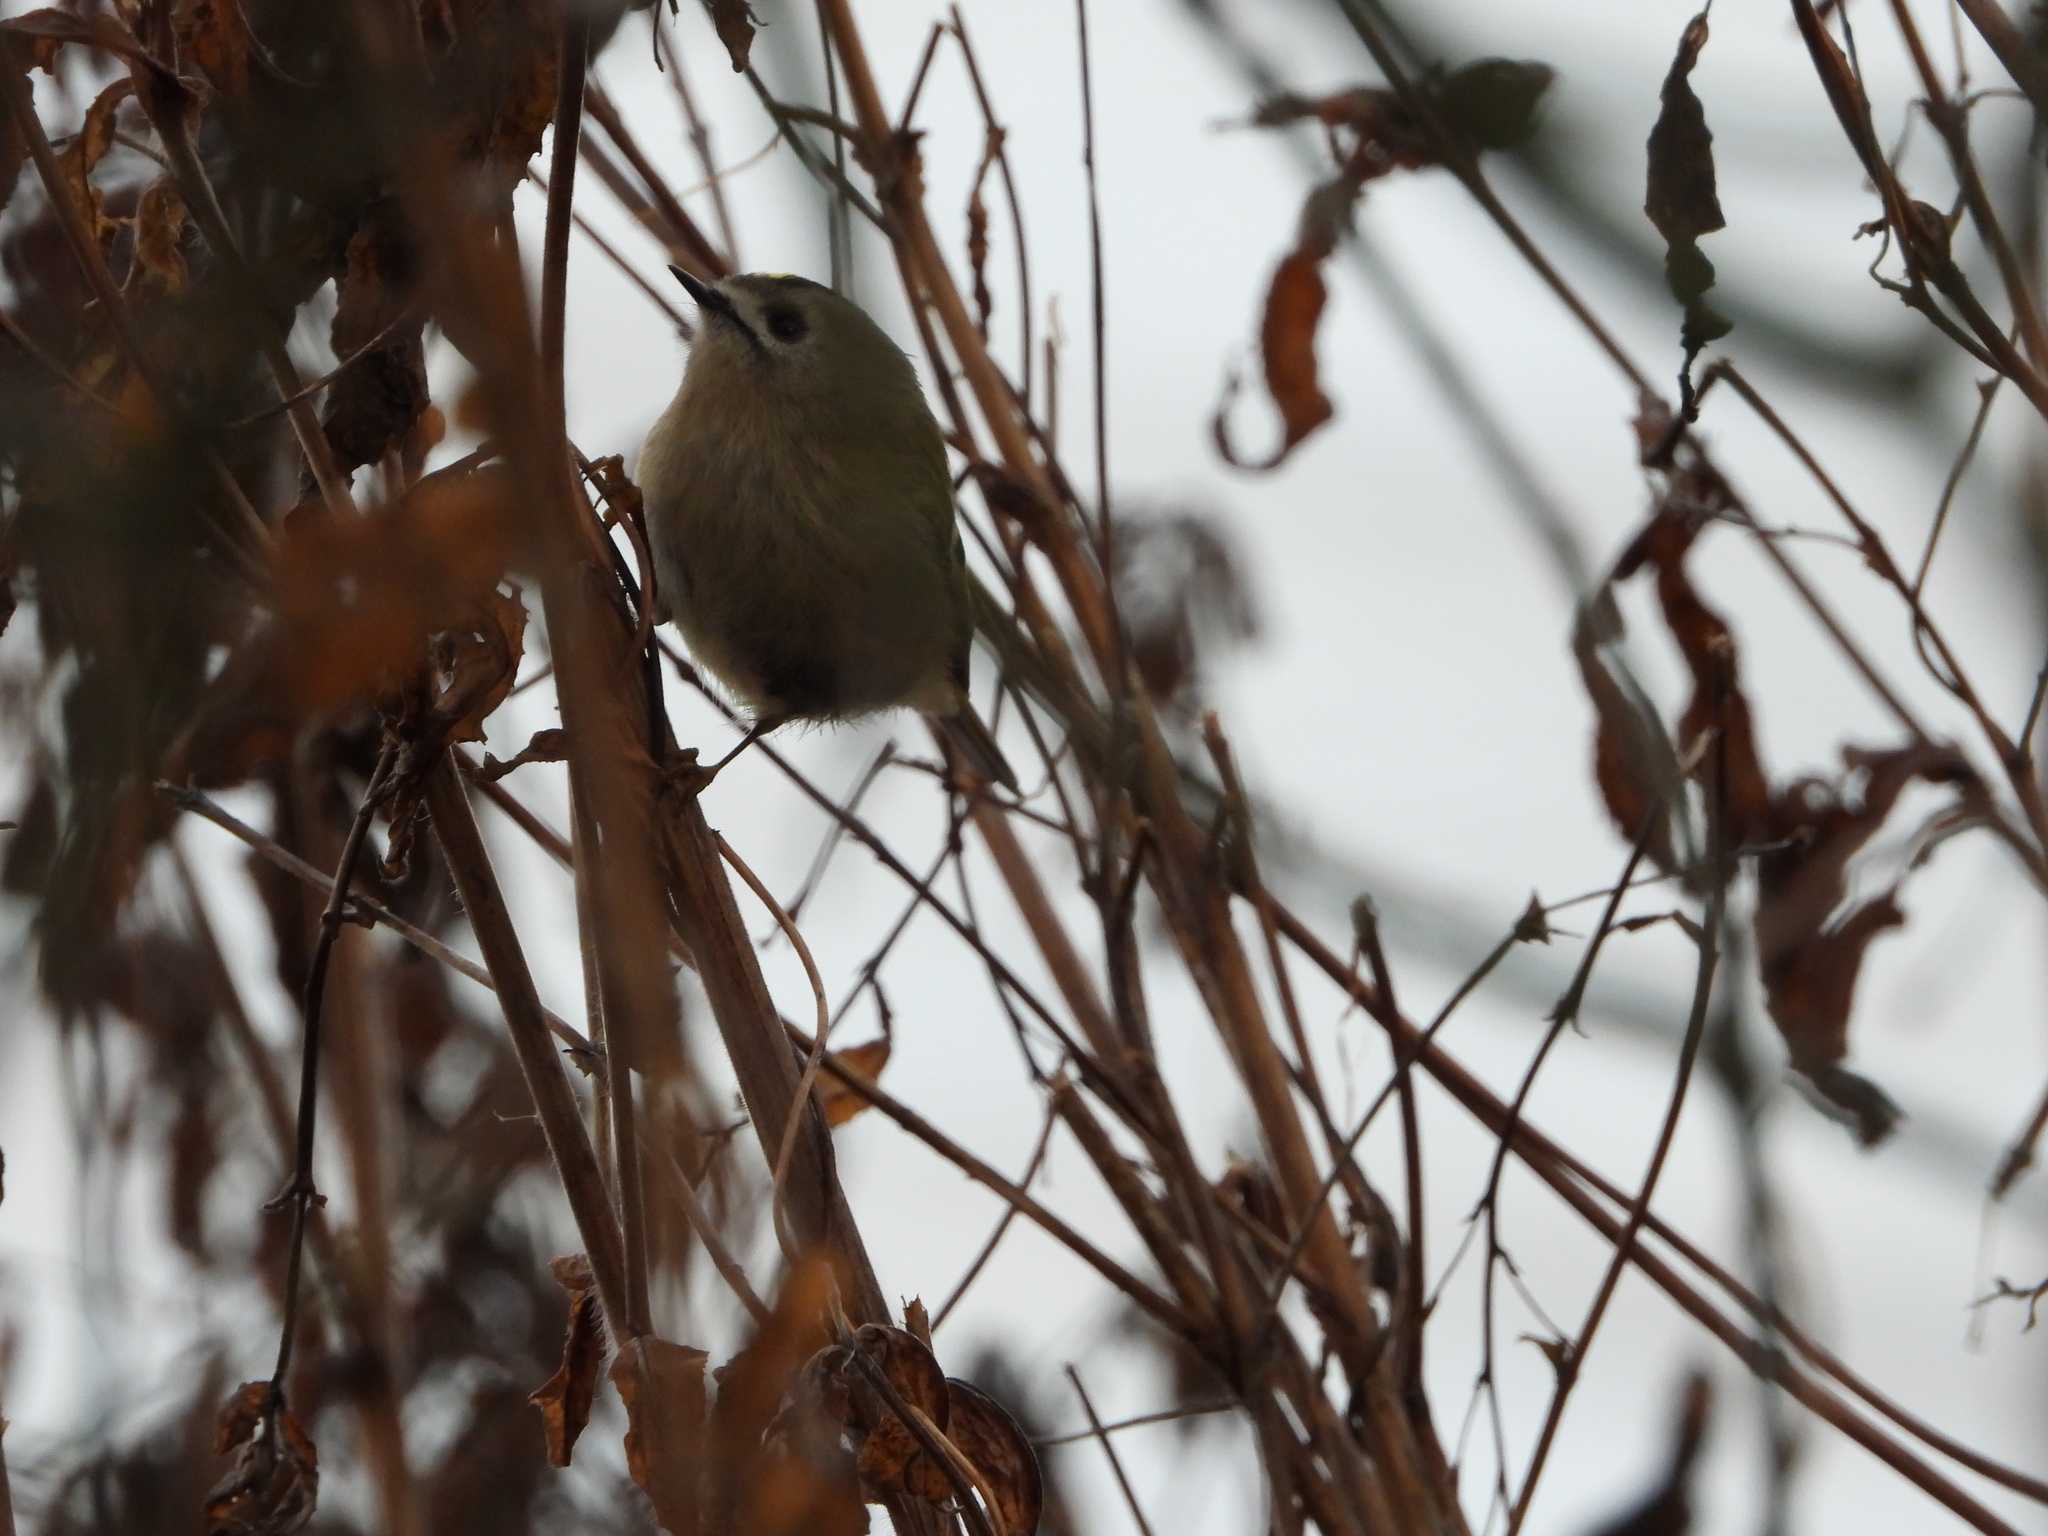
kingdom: Animalia
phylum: Chordata
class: Aves
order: Passeriformes
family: Regulidae
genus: Regulus
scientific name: Regulus regulus
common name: Goldcrest
